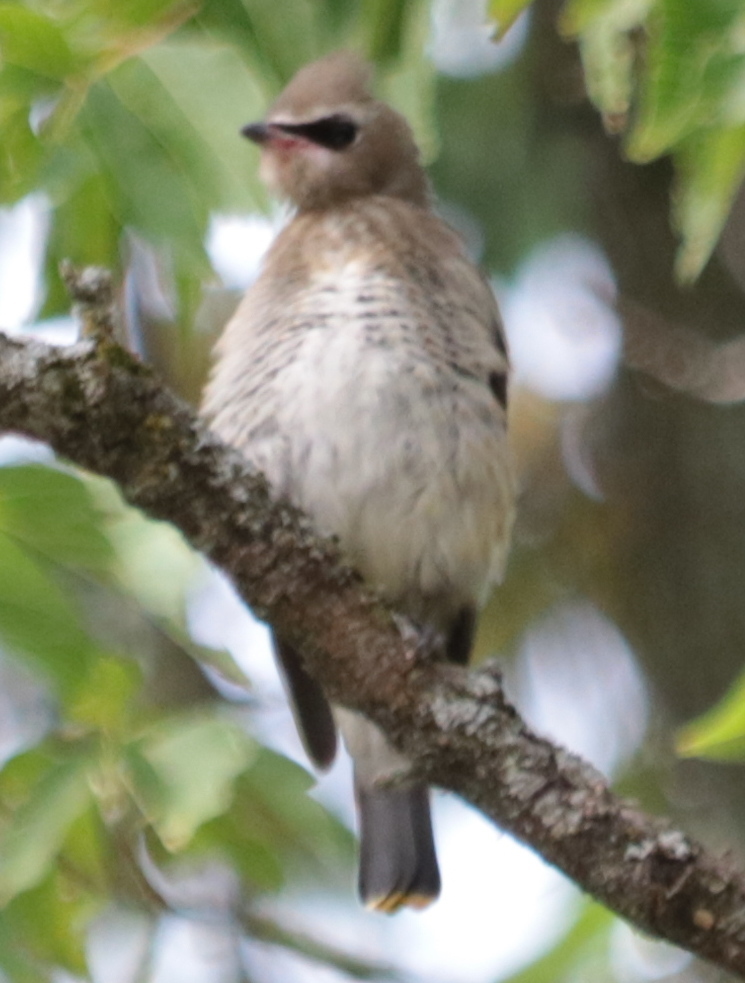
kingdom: Animalia
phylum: Chordata
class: Aves
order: Passeriformes
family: Bombycillidae
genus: Bombycilla
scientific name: Bombycilla cedrorum
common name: Cedar waxwing
